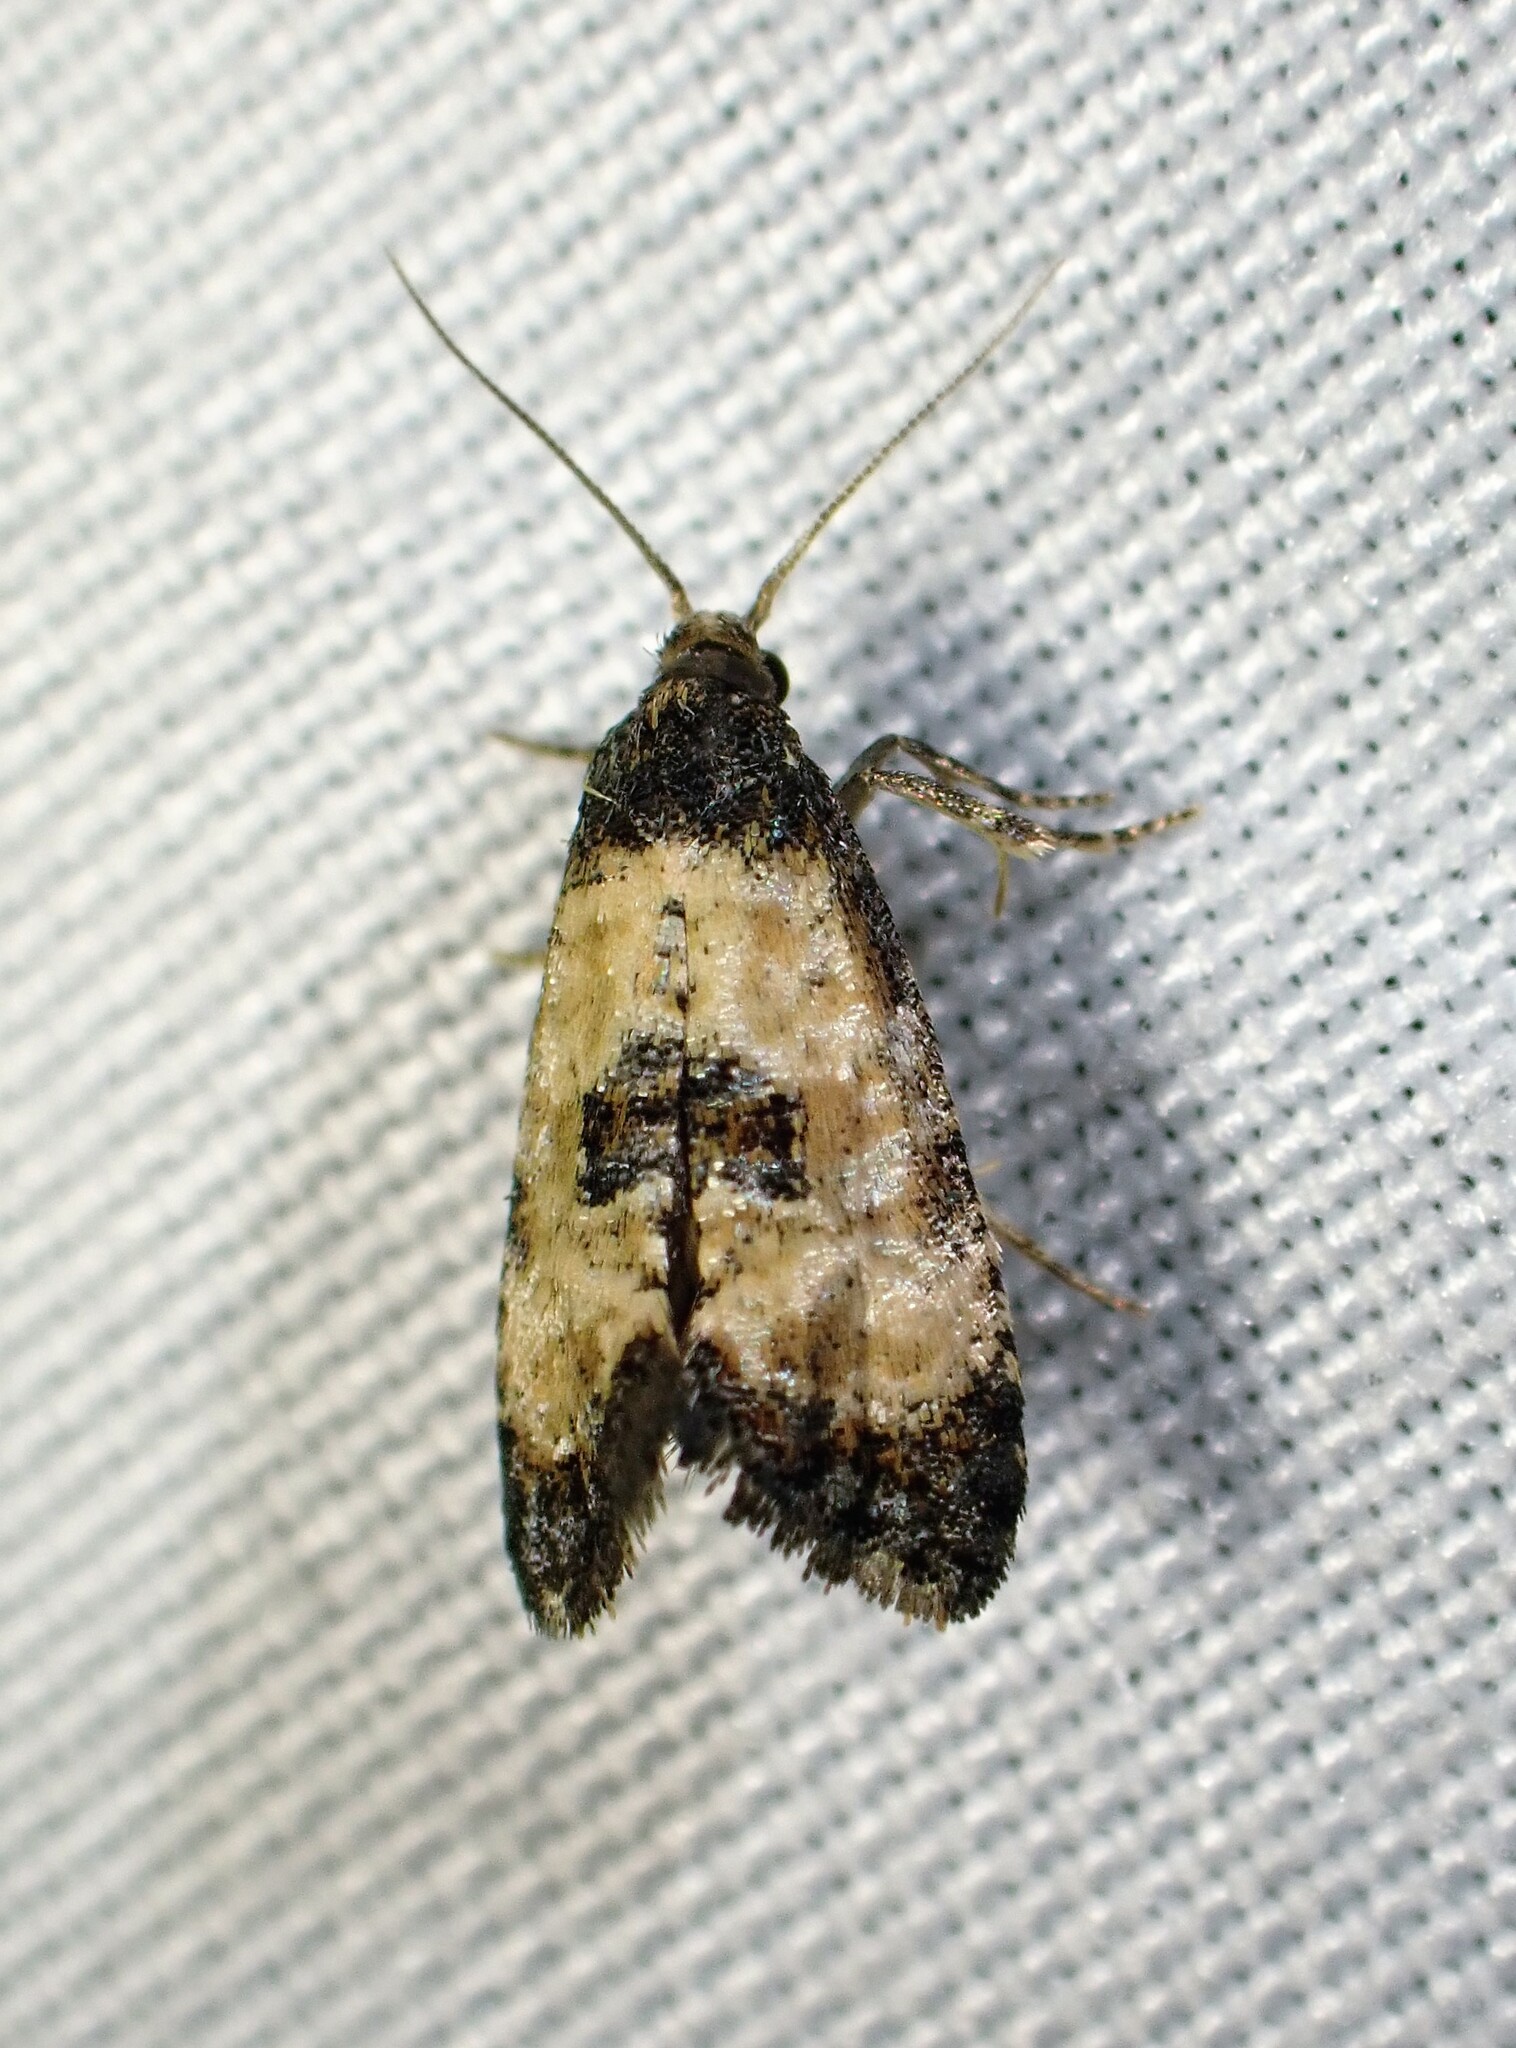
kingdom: Animalia
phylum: Arthropoda
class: Insecta
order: Lepidoptera
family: Tortricidae
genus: Cochylis
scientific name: Cochylis dubitana
